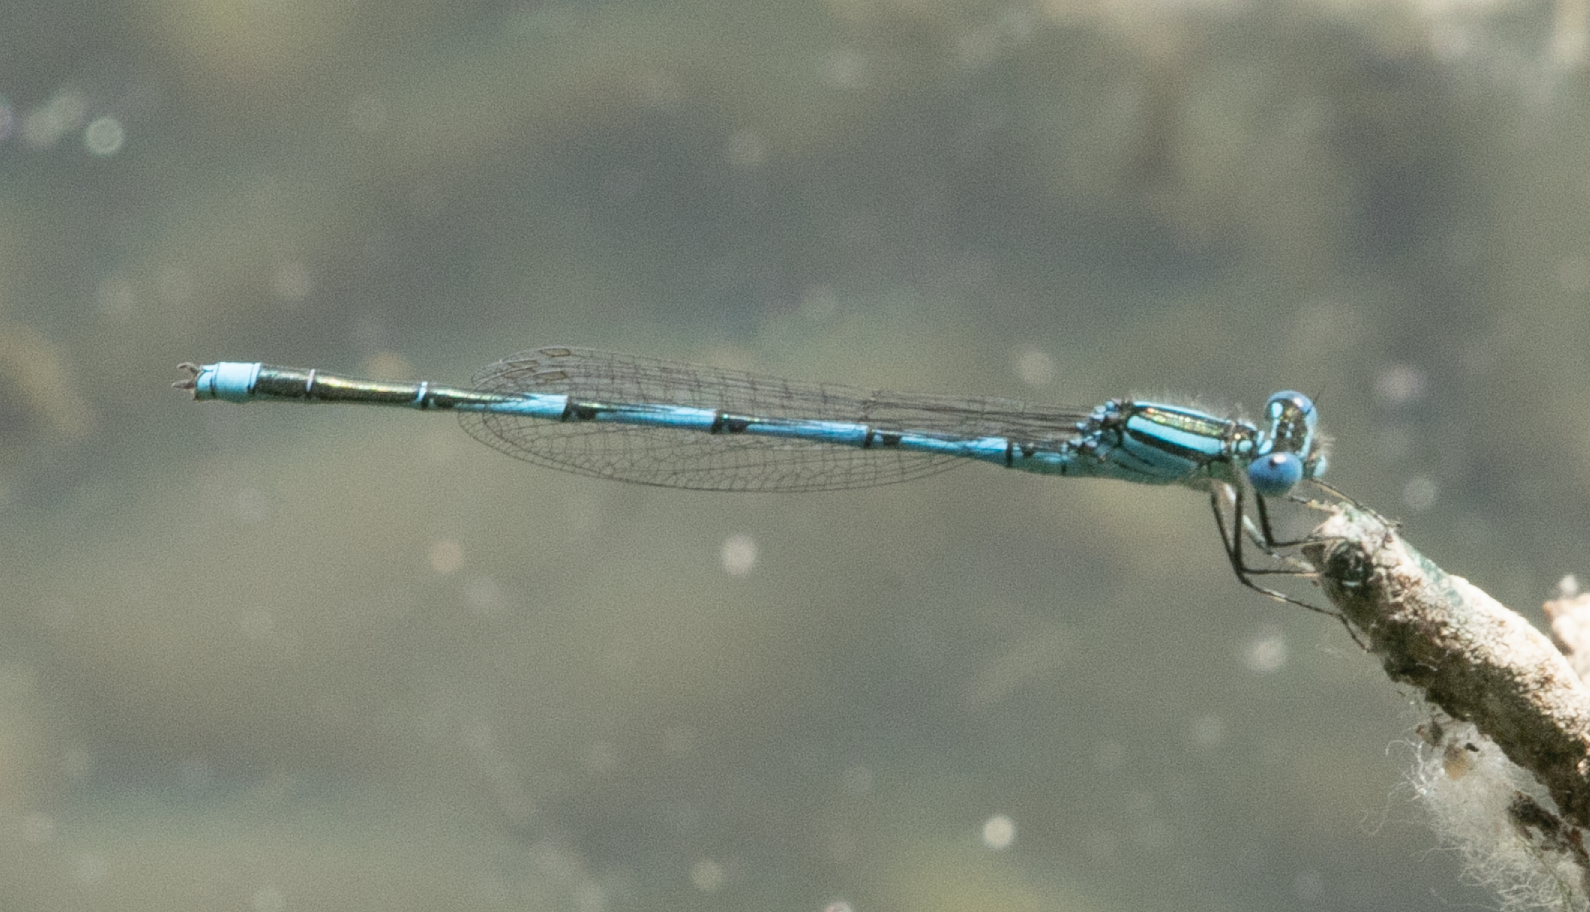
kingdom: Animalia
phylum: Arthropoda
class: Insecta
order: Odonata
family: Coenagrionidae
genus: Erythromma
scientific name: Erythromma lindenii
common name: Blue-eye
